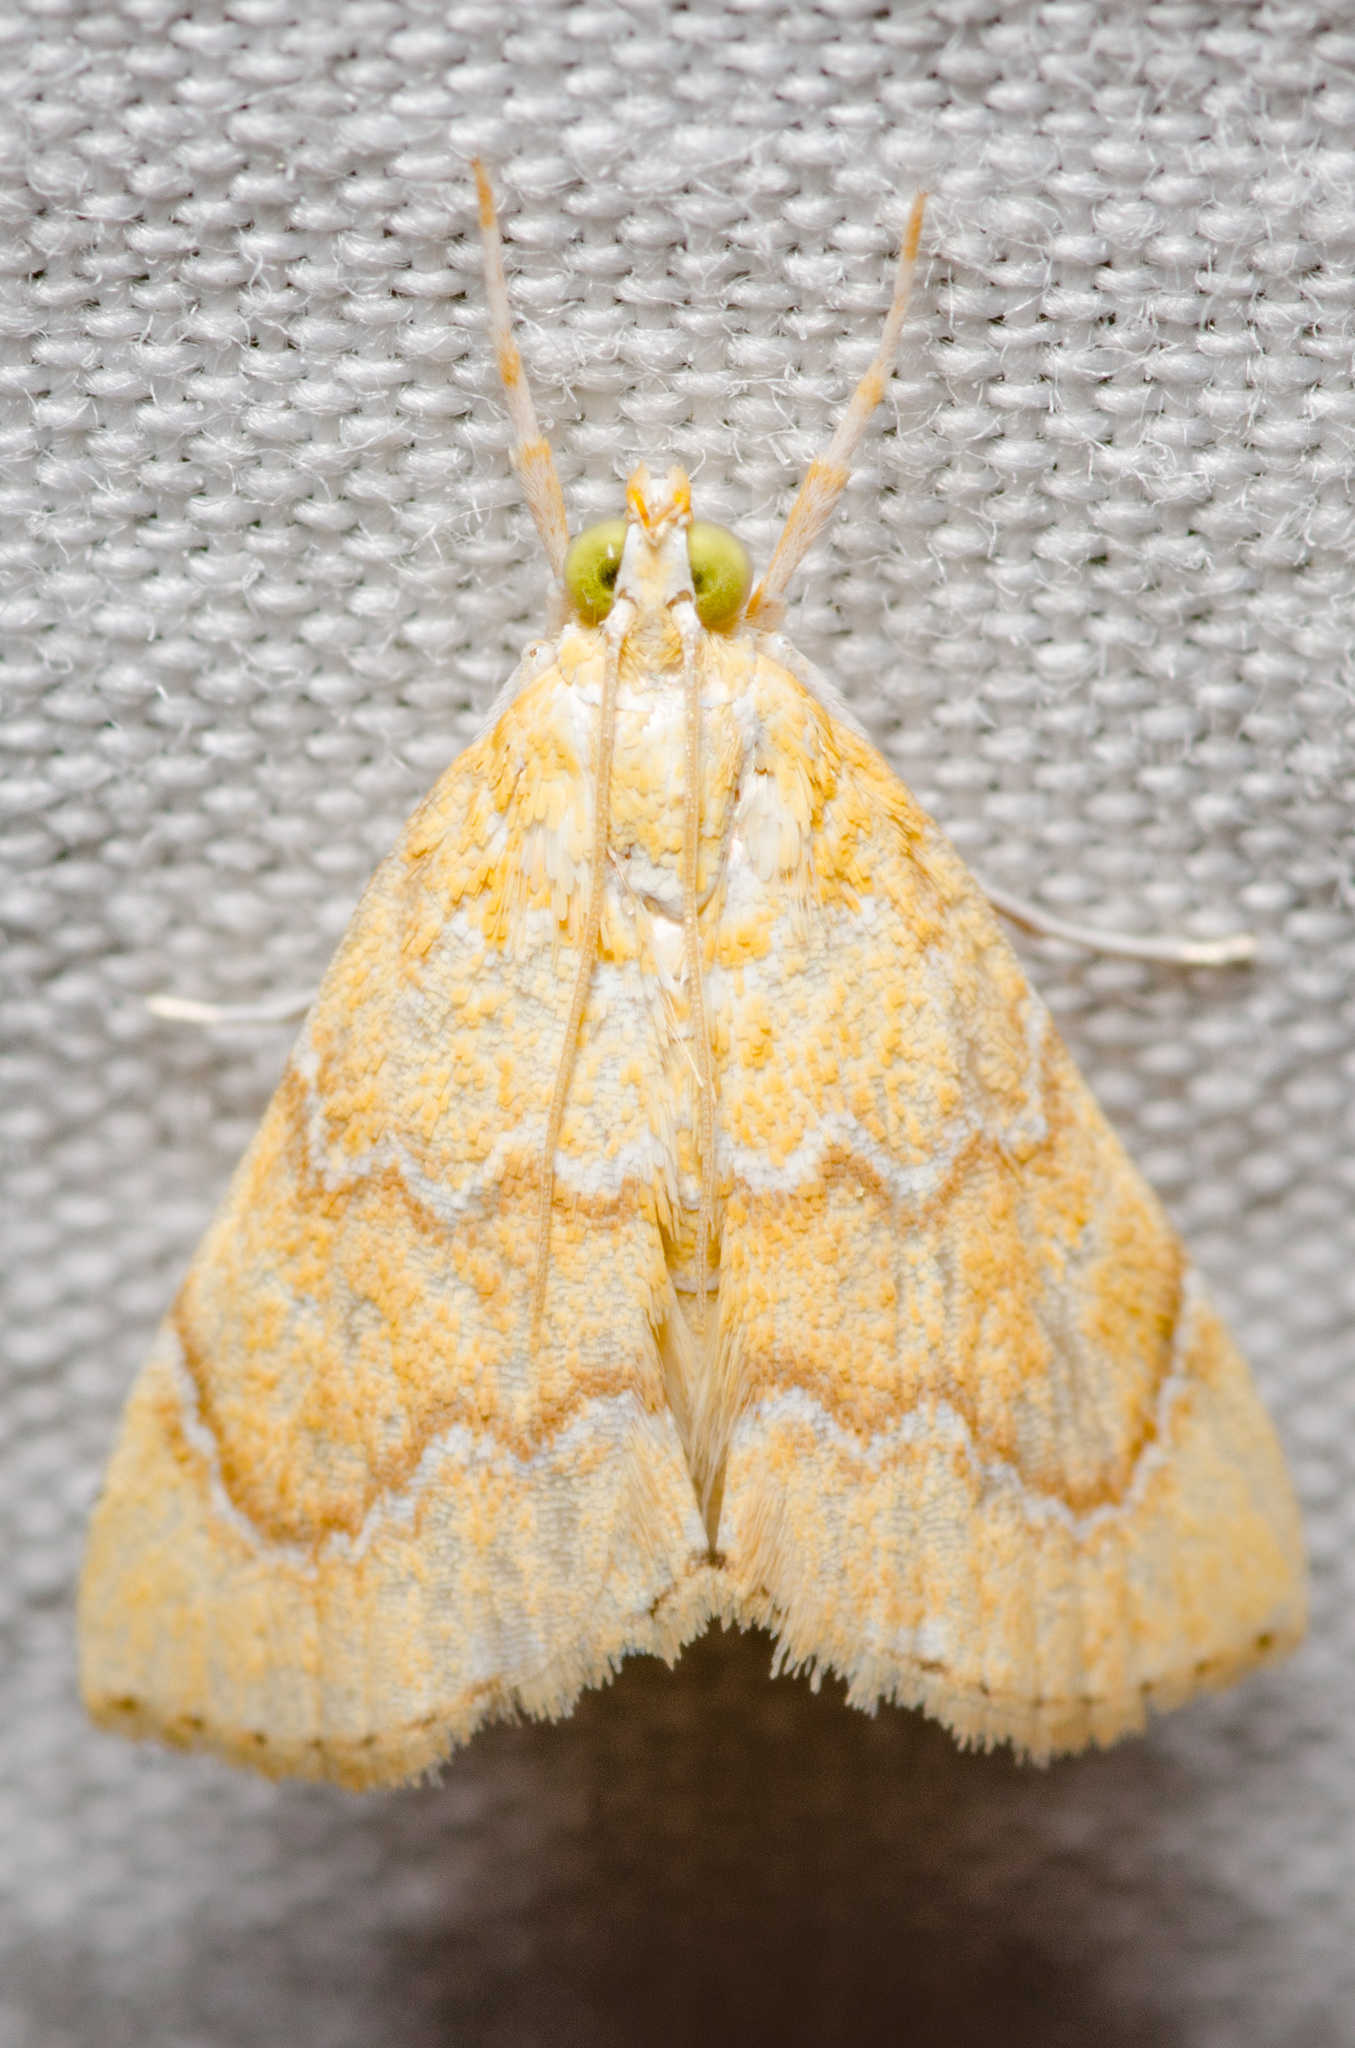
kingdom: Animalia
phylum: Arthropoda
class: Insecta
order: Lepidoptera
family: Crambidae
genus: Glaphyria
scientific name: Glaphyria sesquistrialis
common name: White-roped glaphyria
